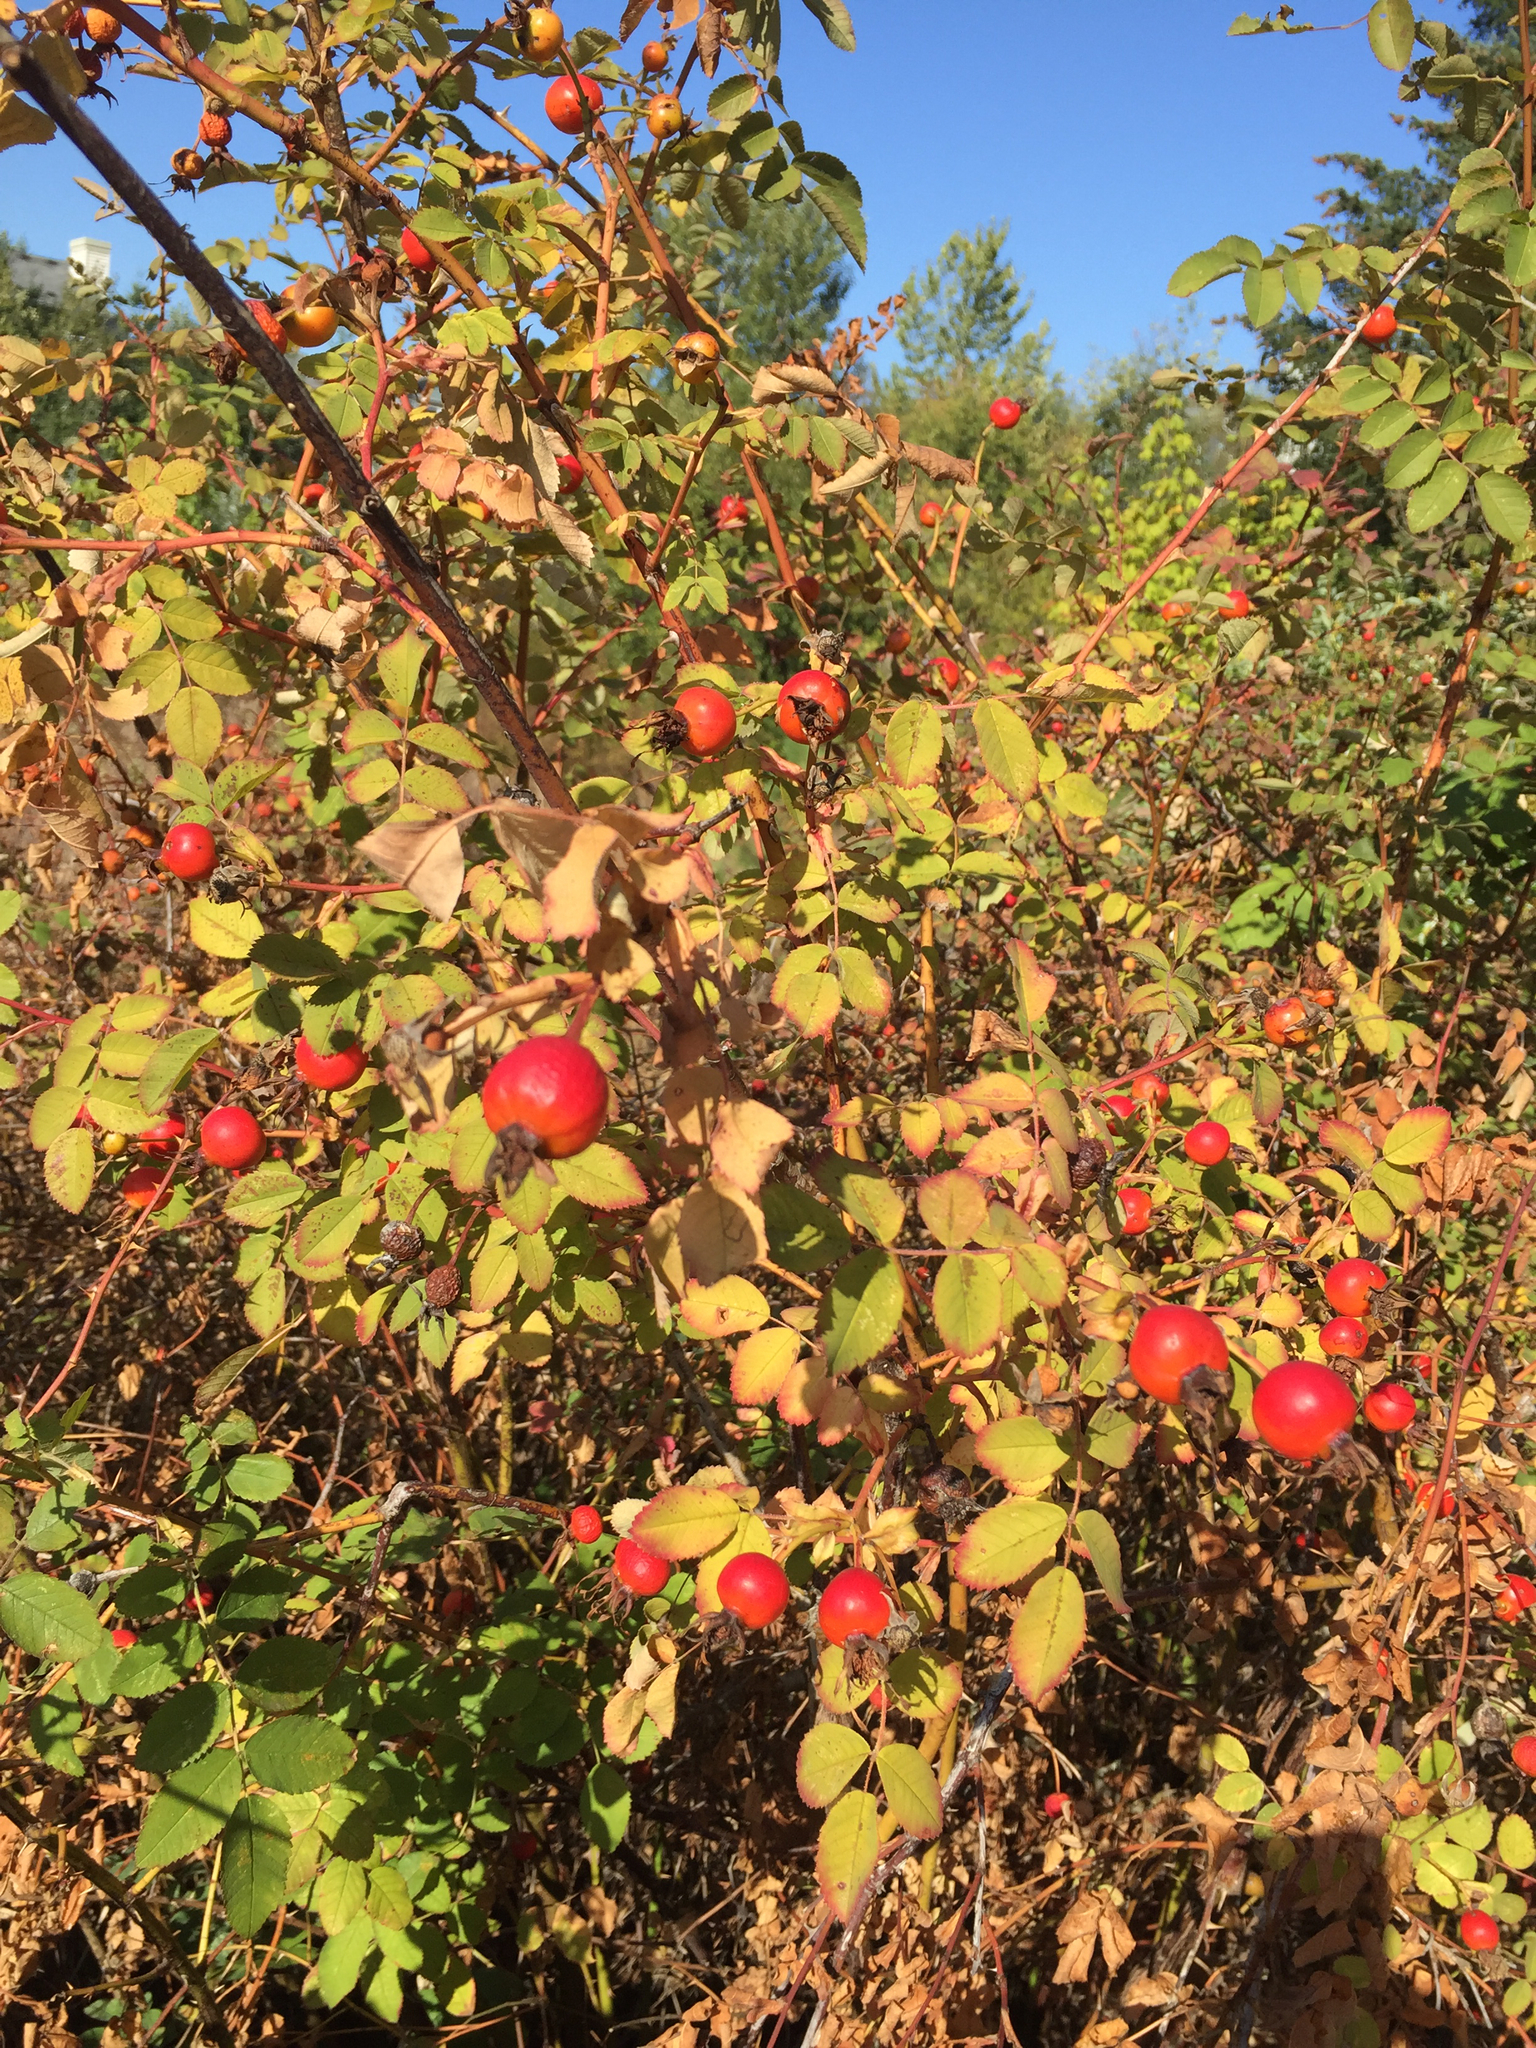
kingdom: Plantae
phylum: Tracheophyta
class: Magnoliopsida
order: Rosales
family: Rosaceae
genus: Rosa
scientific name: Rosa nutkana
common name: Nootka rose
